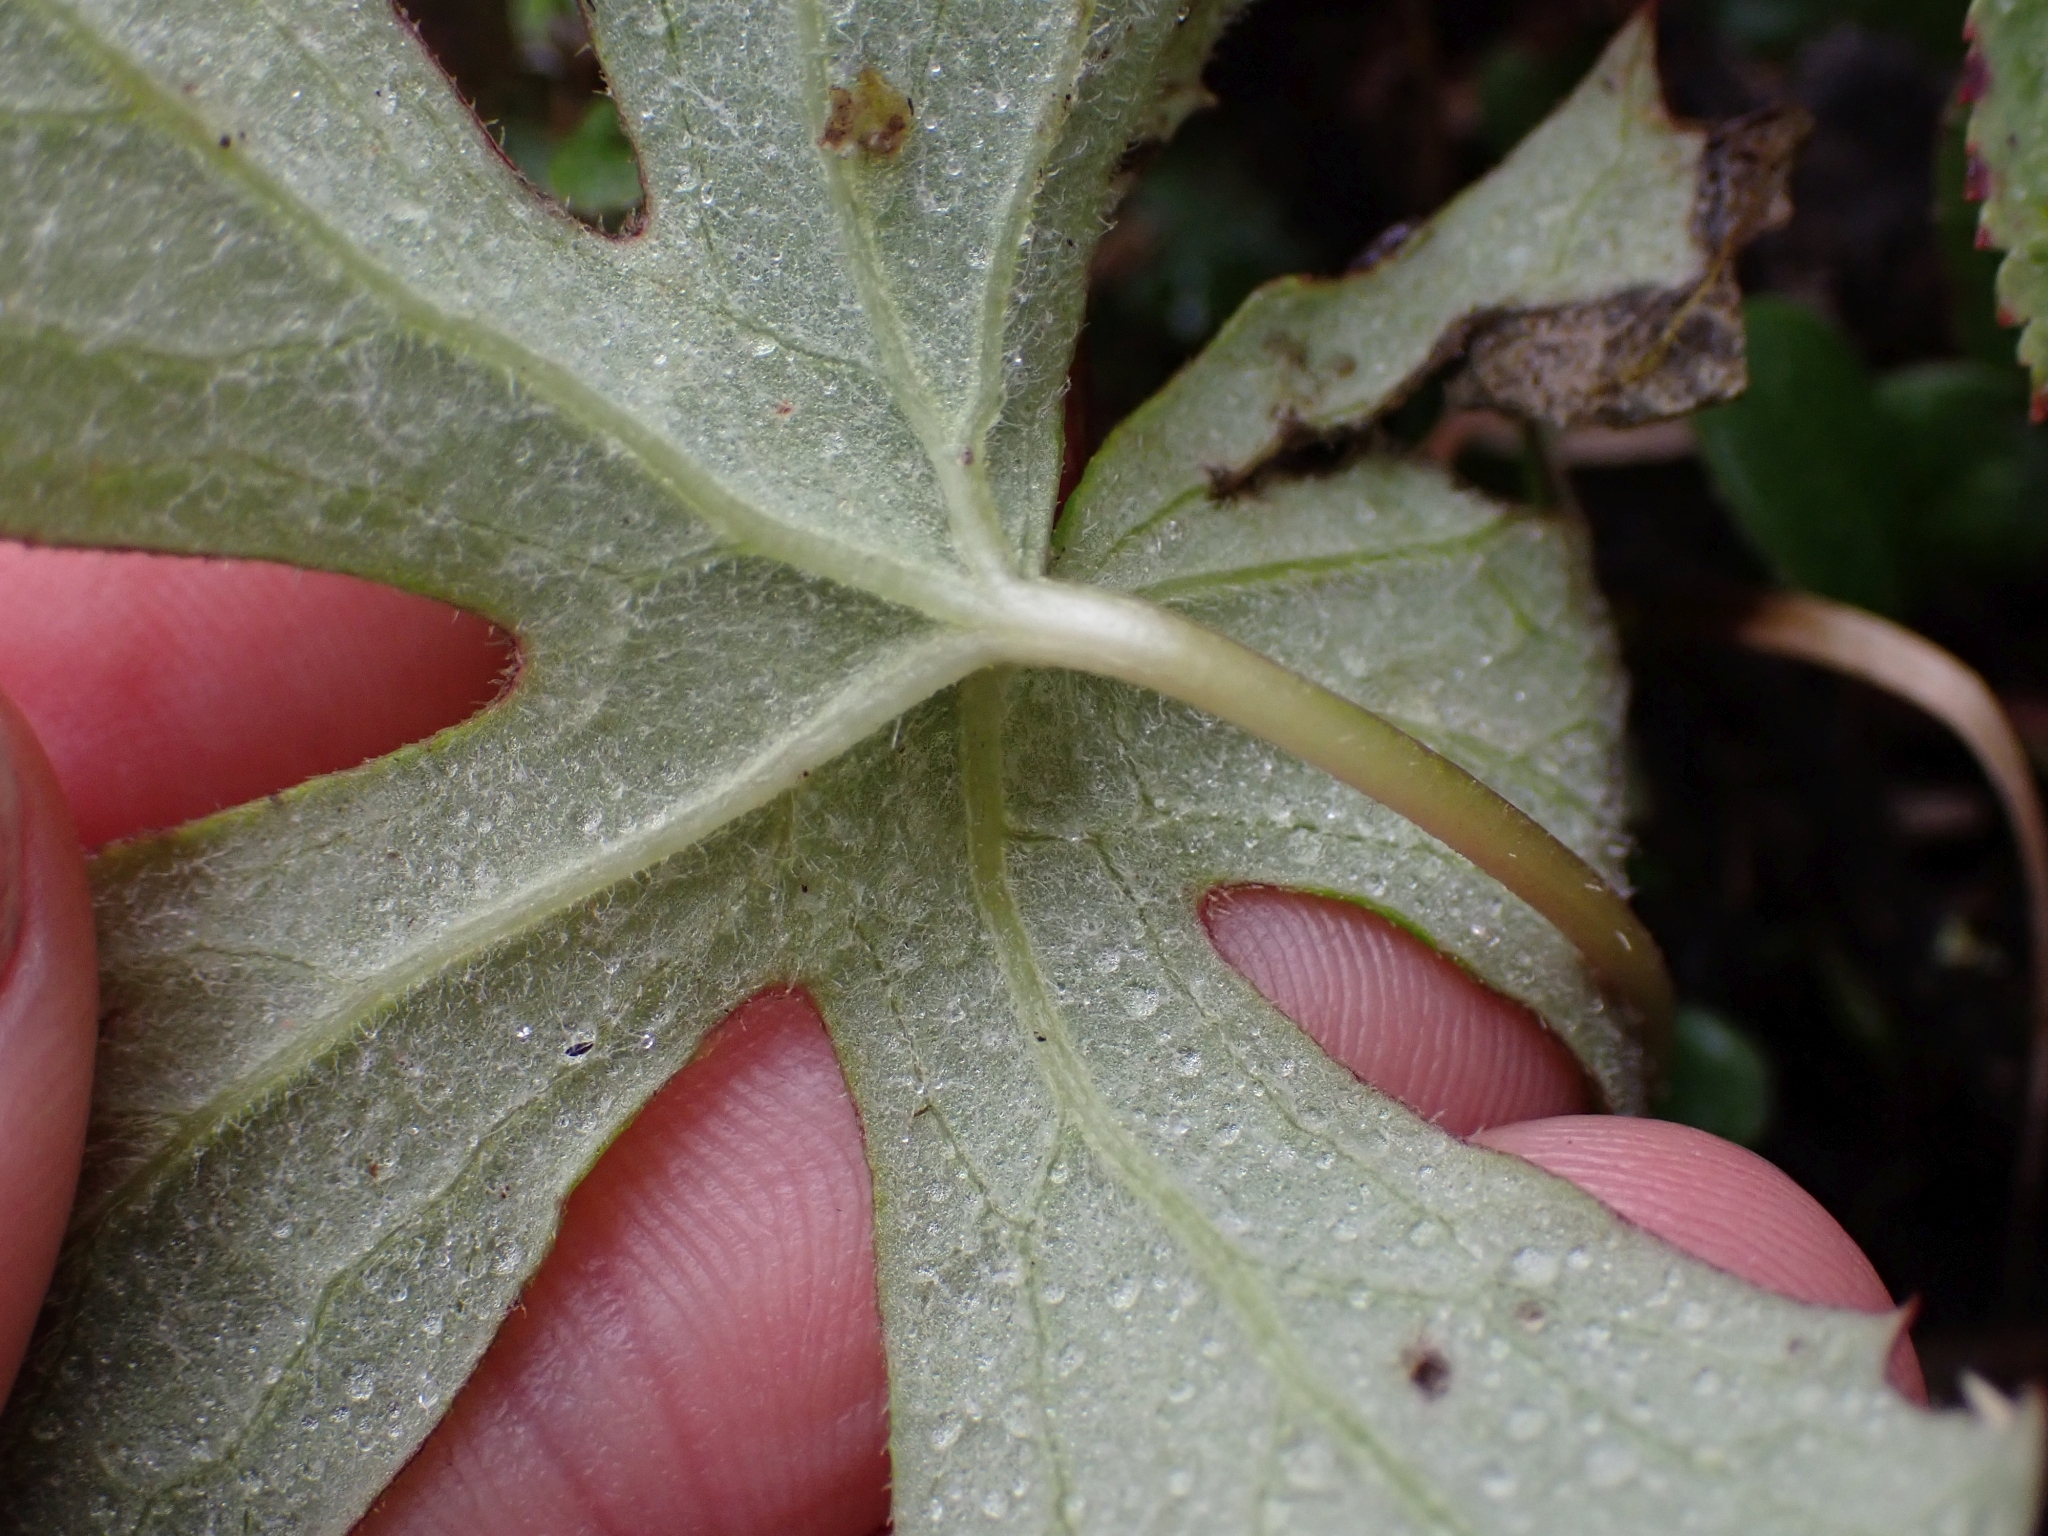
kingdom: Plantae
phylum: Tracheophyta
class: Magnoliopsida
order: Asterales
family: Asteraceae
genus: Petasites
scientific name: Petasites frigidus
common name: Arctic butterbur
